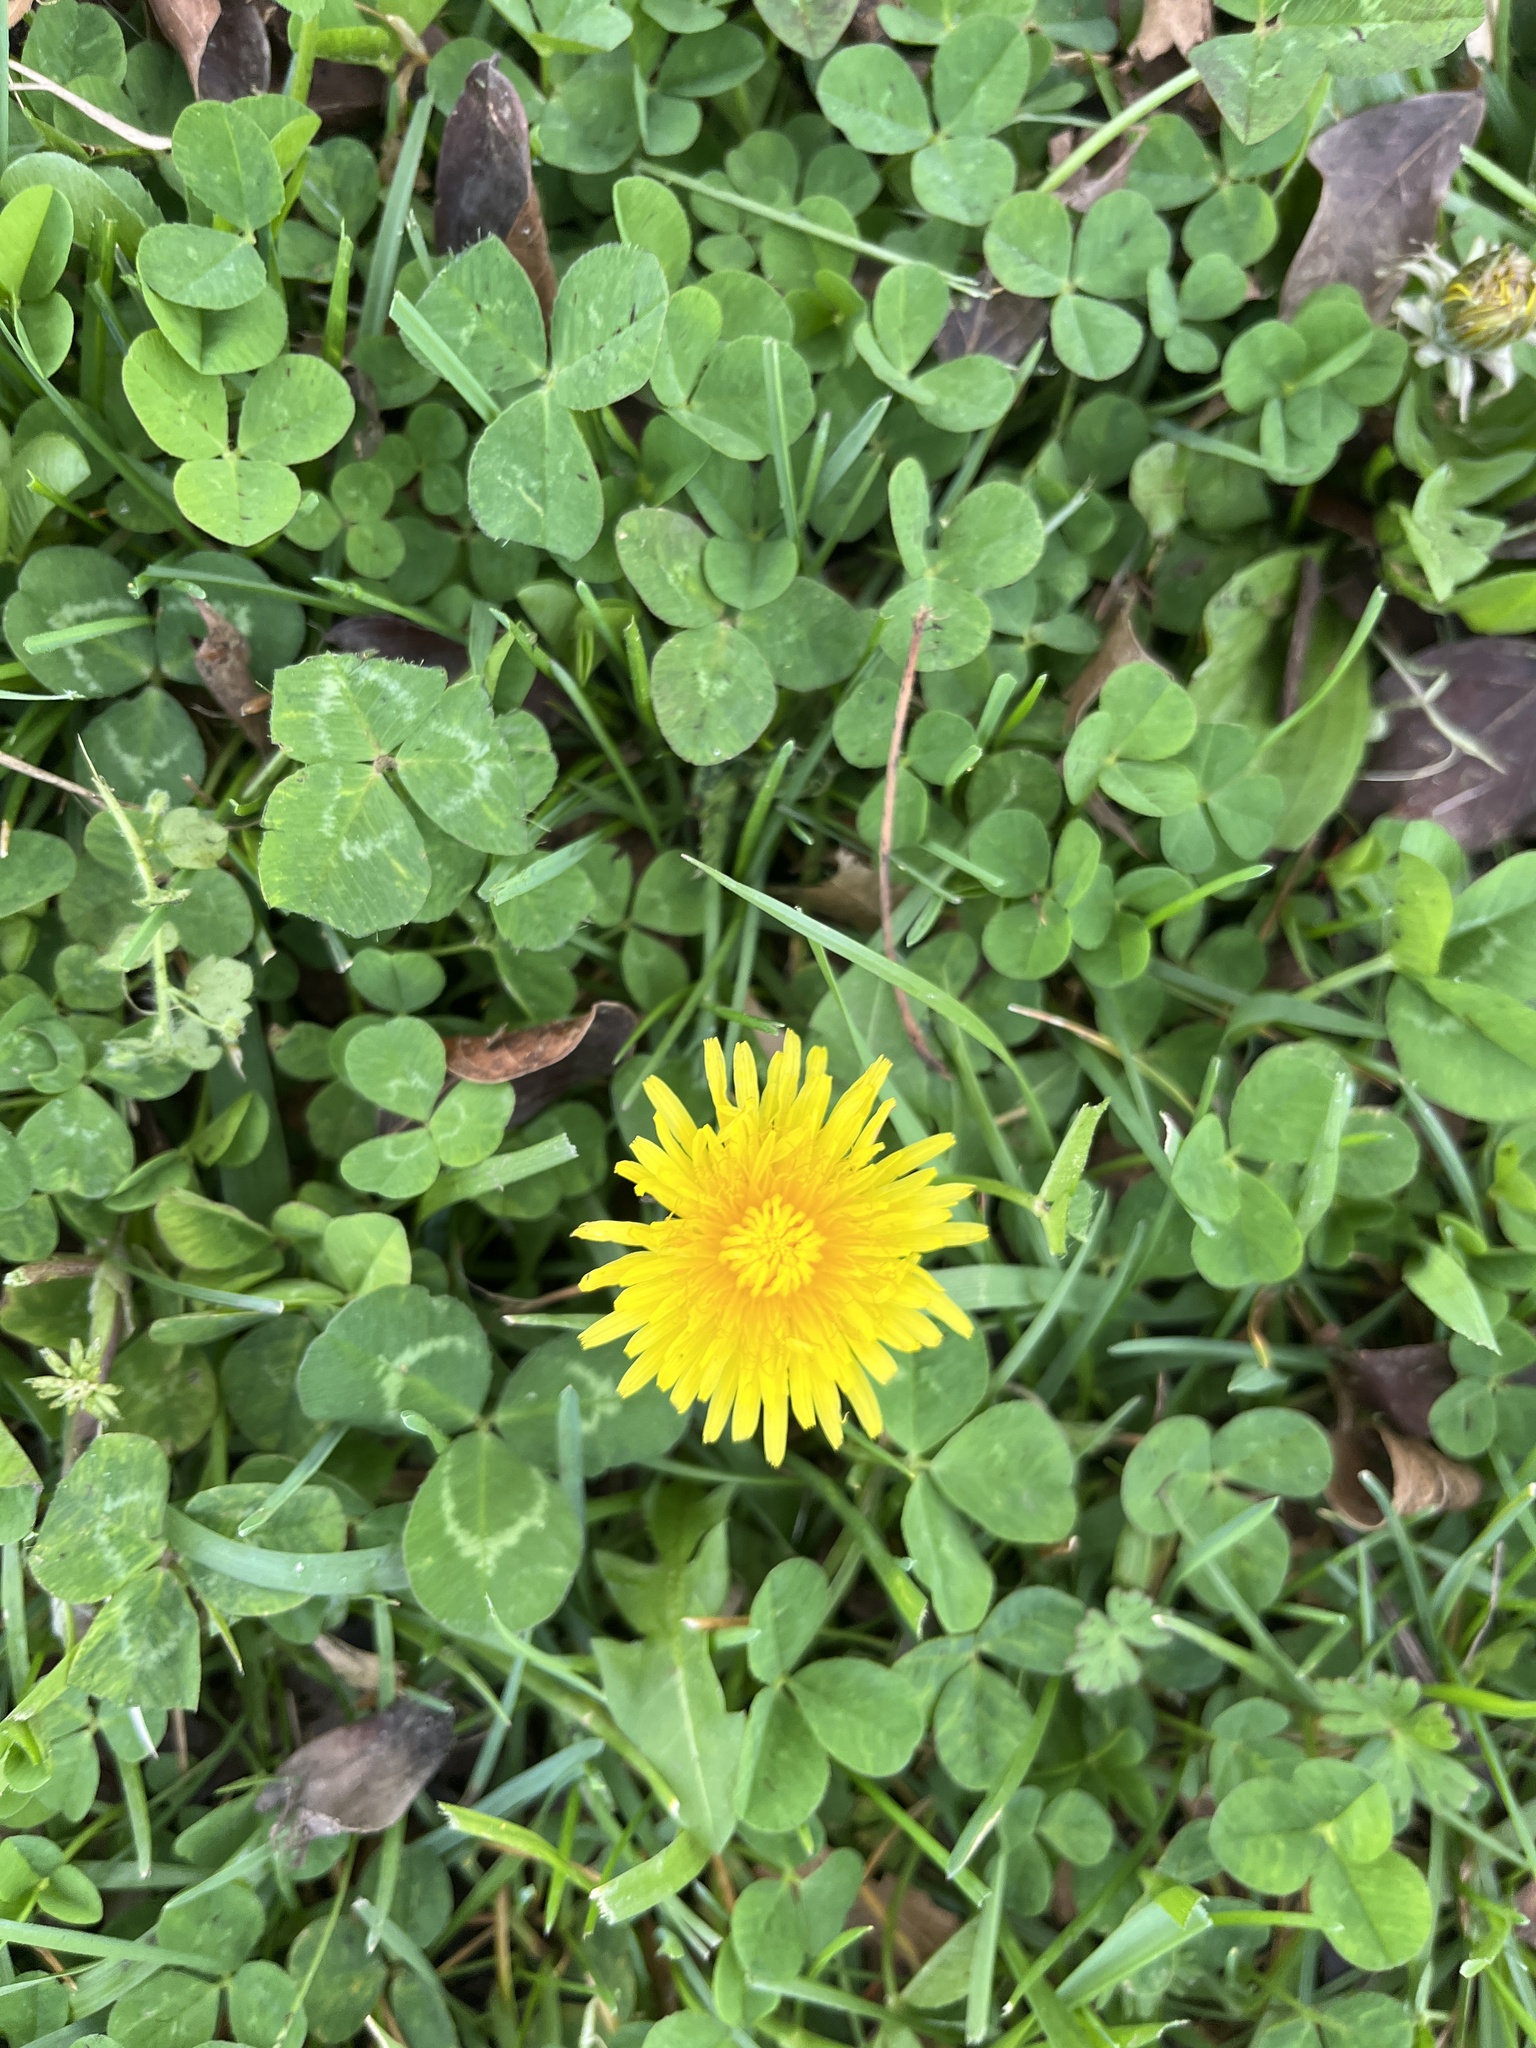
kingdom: Plantae
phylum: Tracheophyta
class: Magnoliopsida
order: Asterales
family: Asteraceae
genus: Taraxacum
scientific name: Taraxacum
